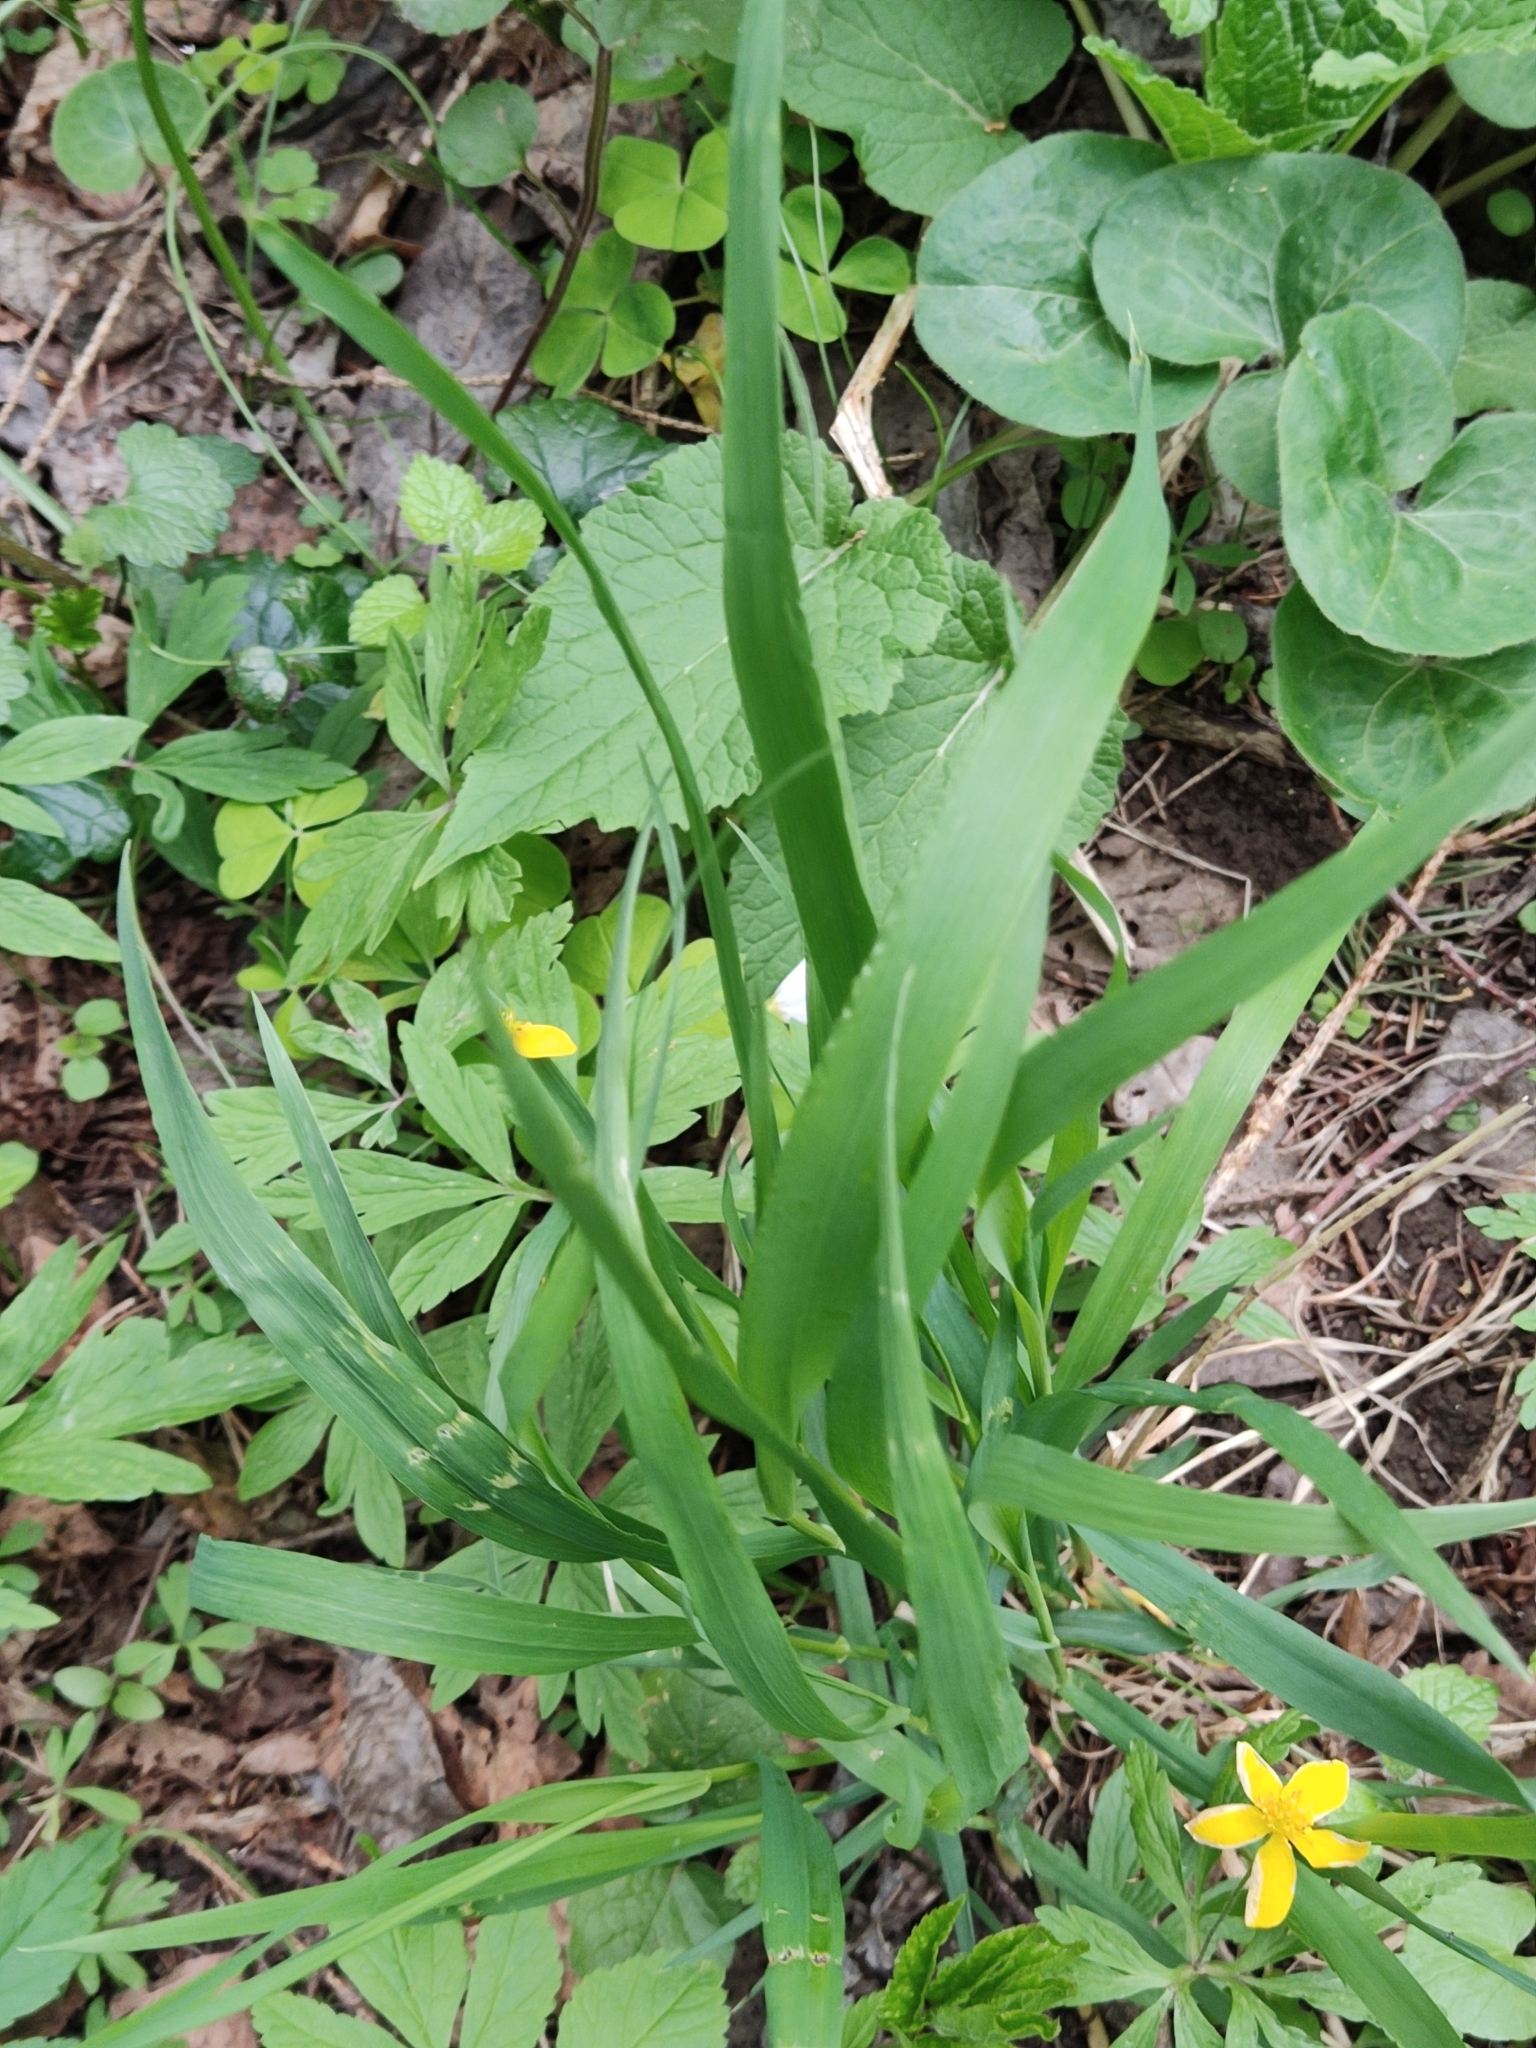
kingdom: Plantae
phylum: Tracheophyta
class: Liliopsida
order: Poales
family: Poaceae
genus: Milium
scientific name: Milium effusum
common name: Wood millet
